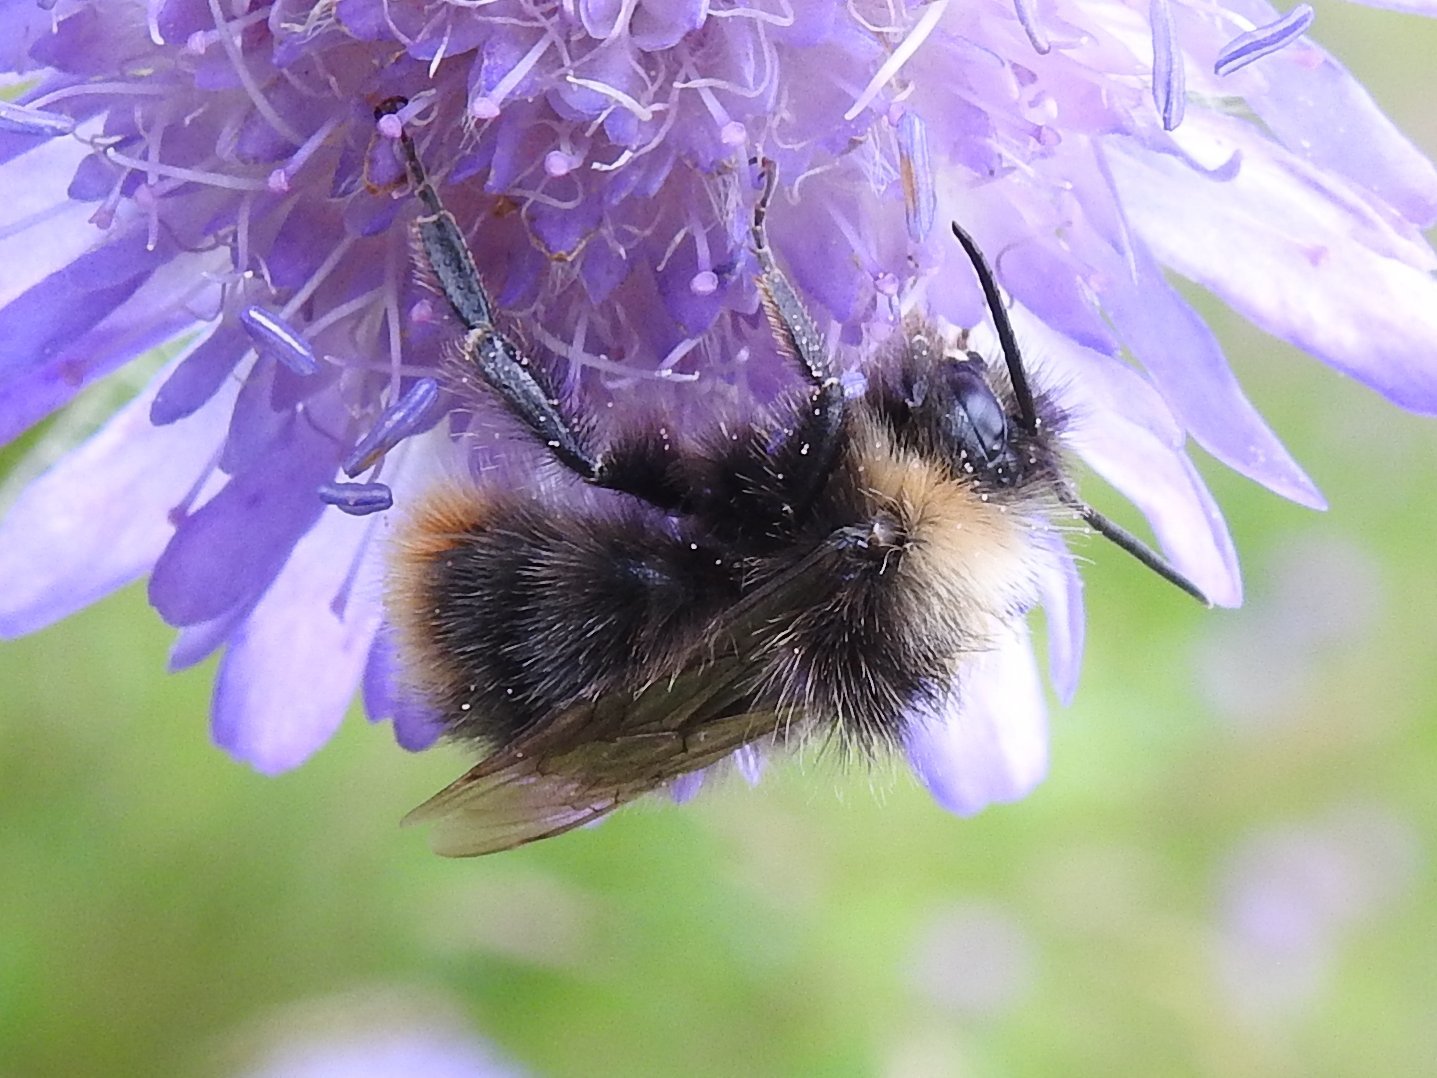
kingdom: Animalia
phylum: Arthropoda
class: Insecta
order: Hymenoptera
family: Apidae
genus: Bombus
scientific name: Bombus pratorum
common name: Early humble-bee
